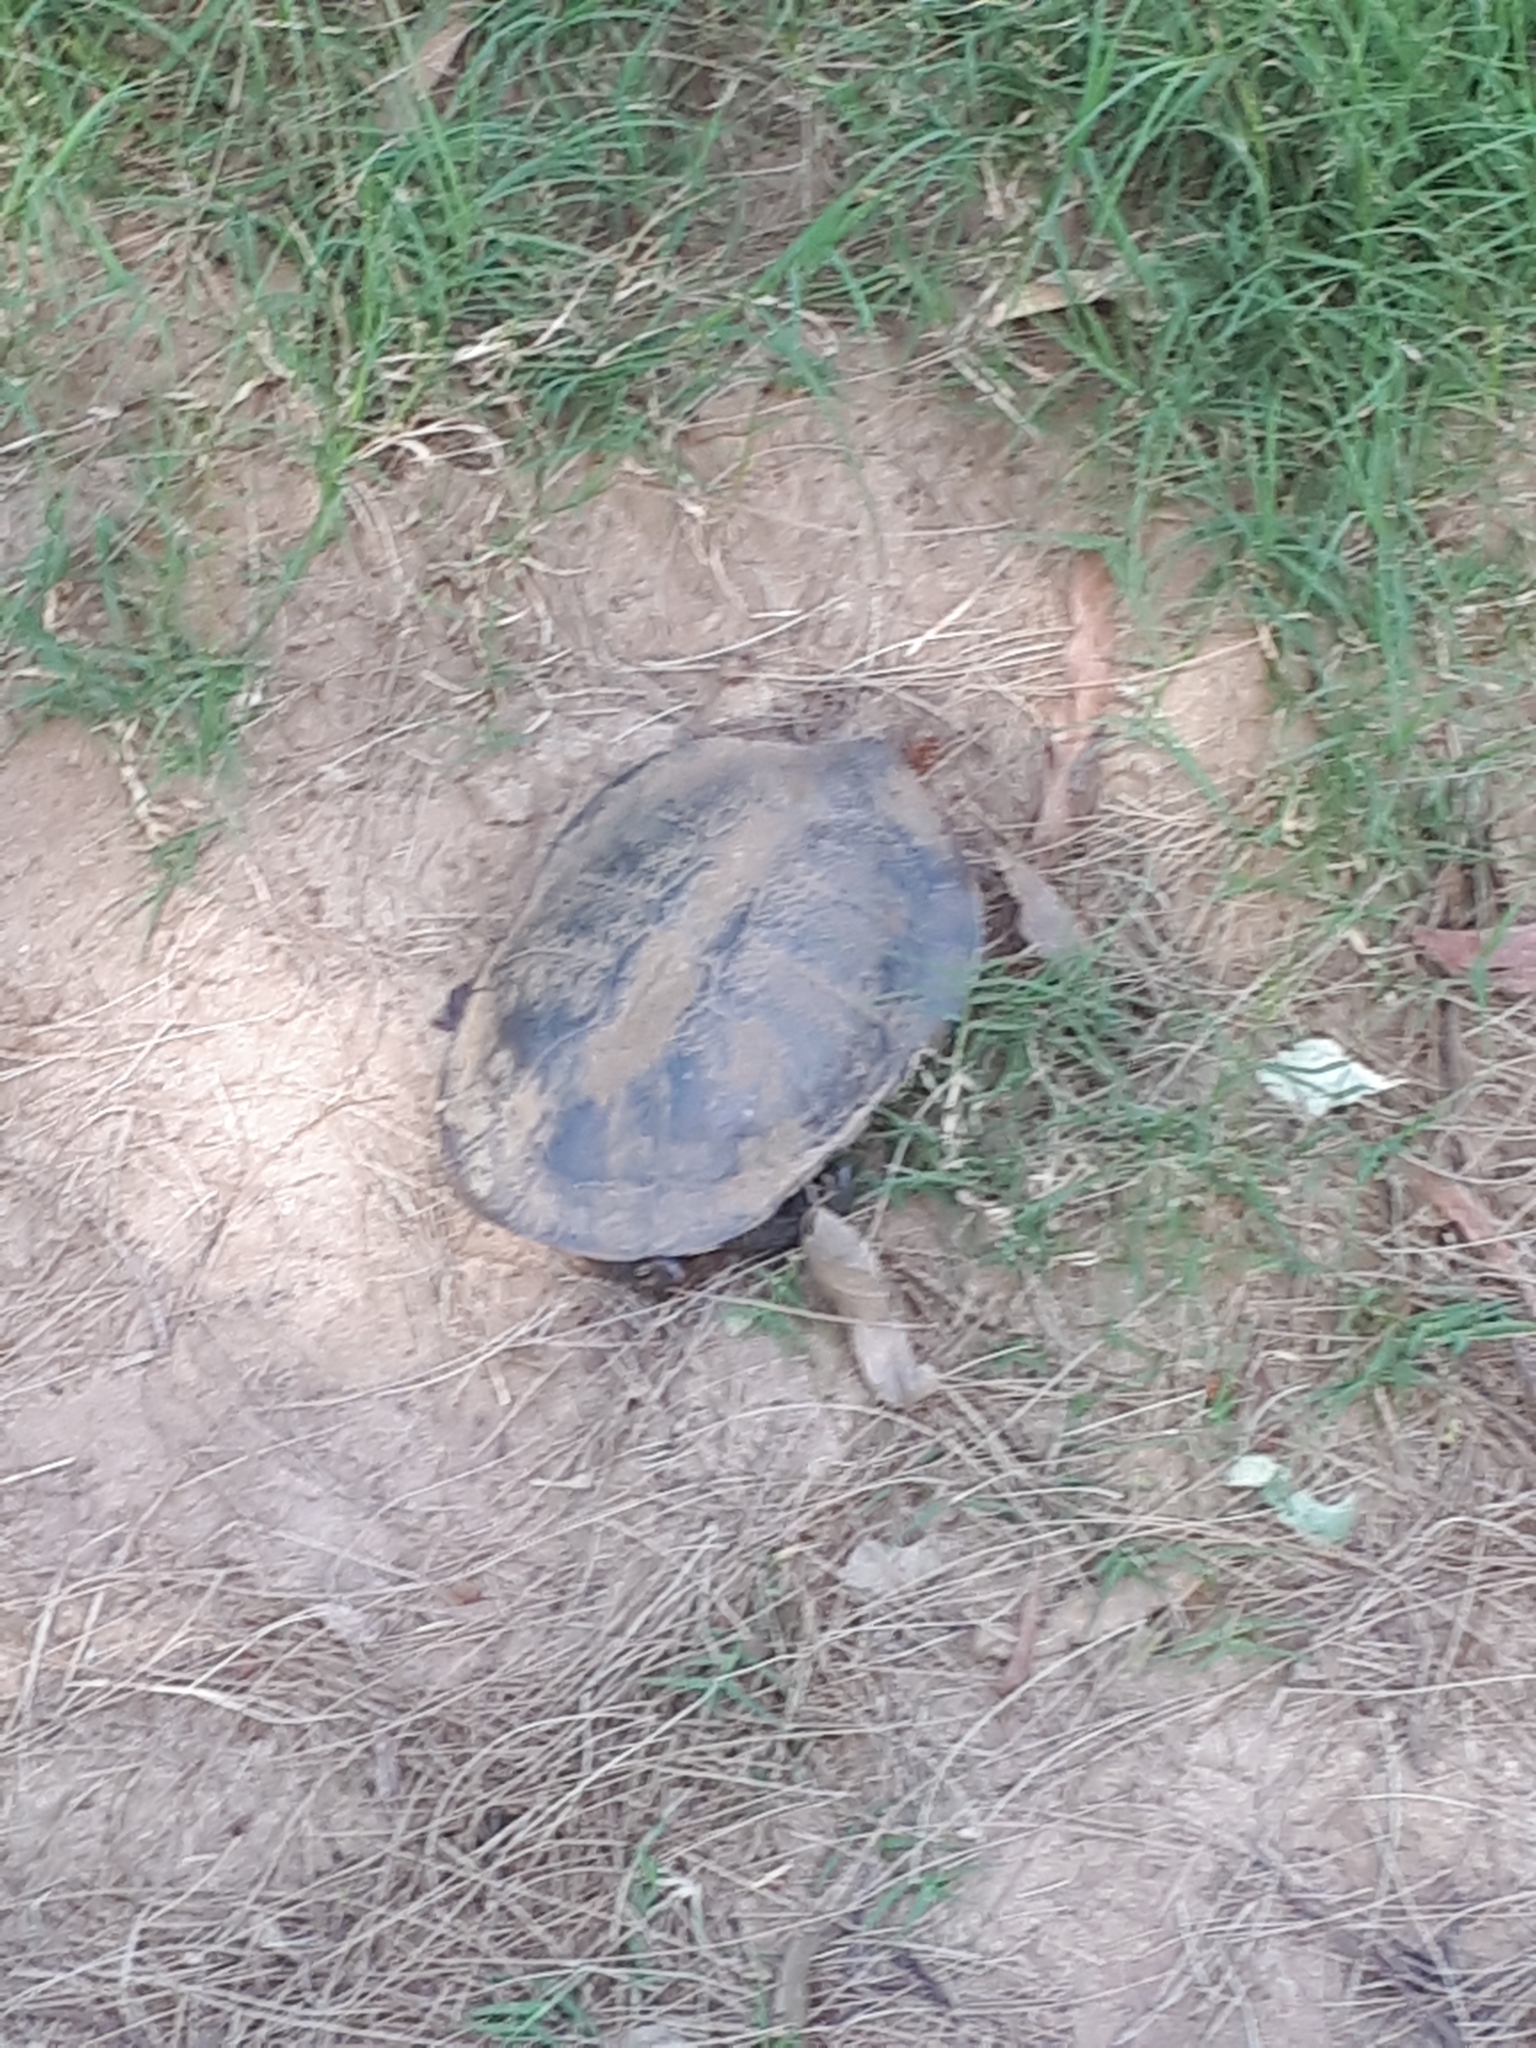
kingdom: Animalia
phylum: Chordata
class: Testudines
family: Chelidae
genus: Chelodina
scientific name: Chelodina longicollis
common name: Eastern snake-necked turtle
